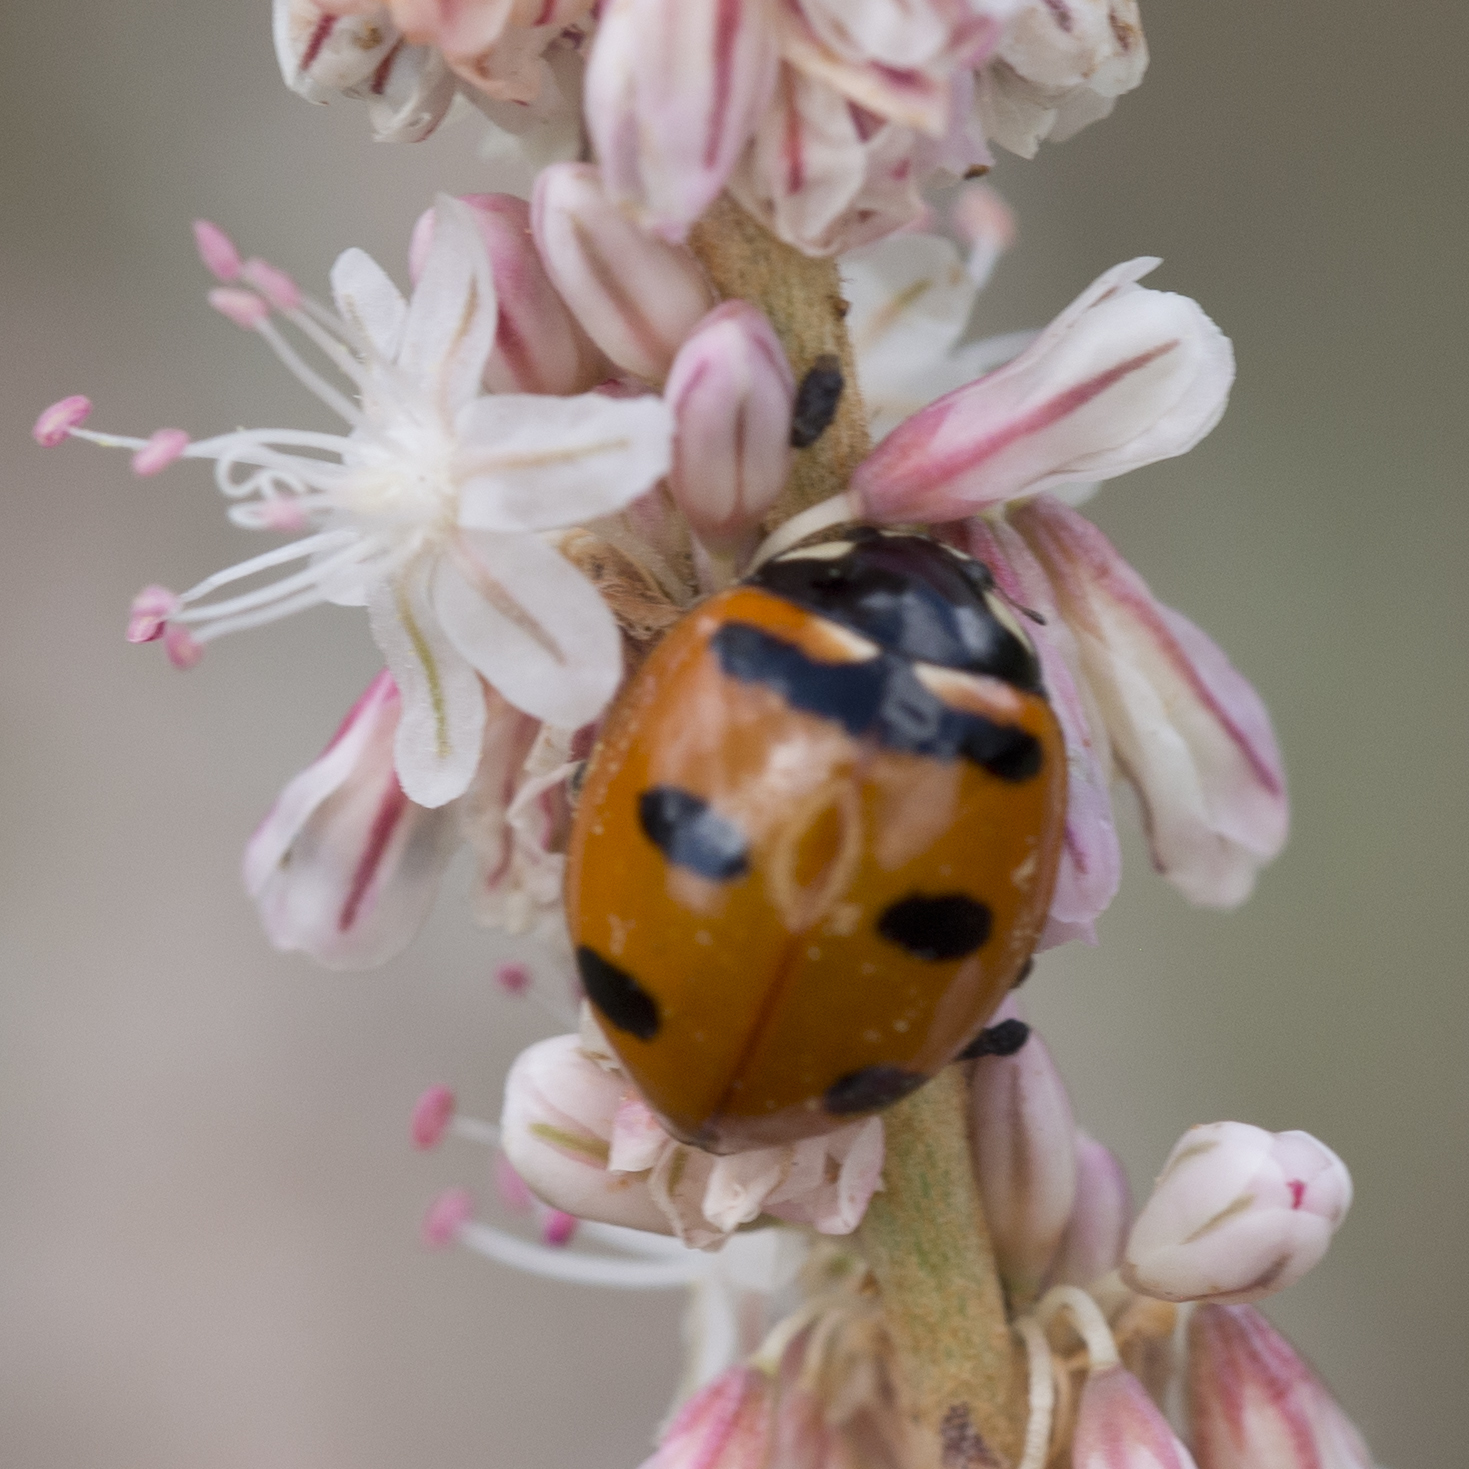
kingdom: Animalia
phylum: Arthropoda
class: Insecta
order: Coleoptera
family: Coccinellidae
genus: Coccinella
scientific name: Coccinella transversoguttata
